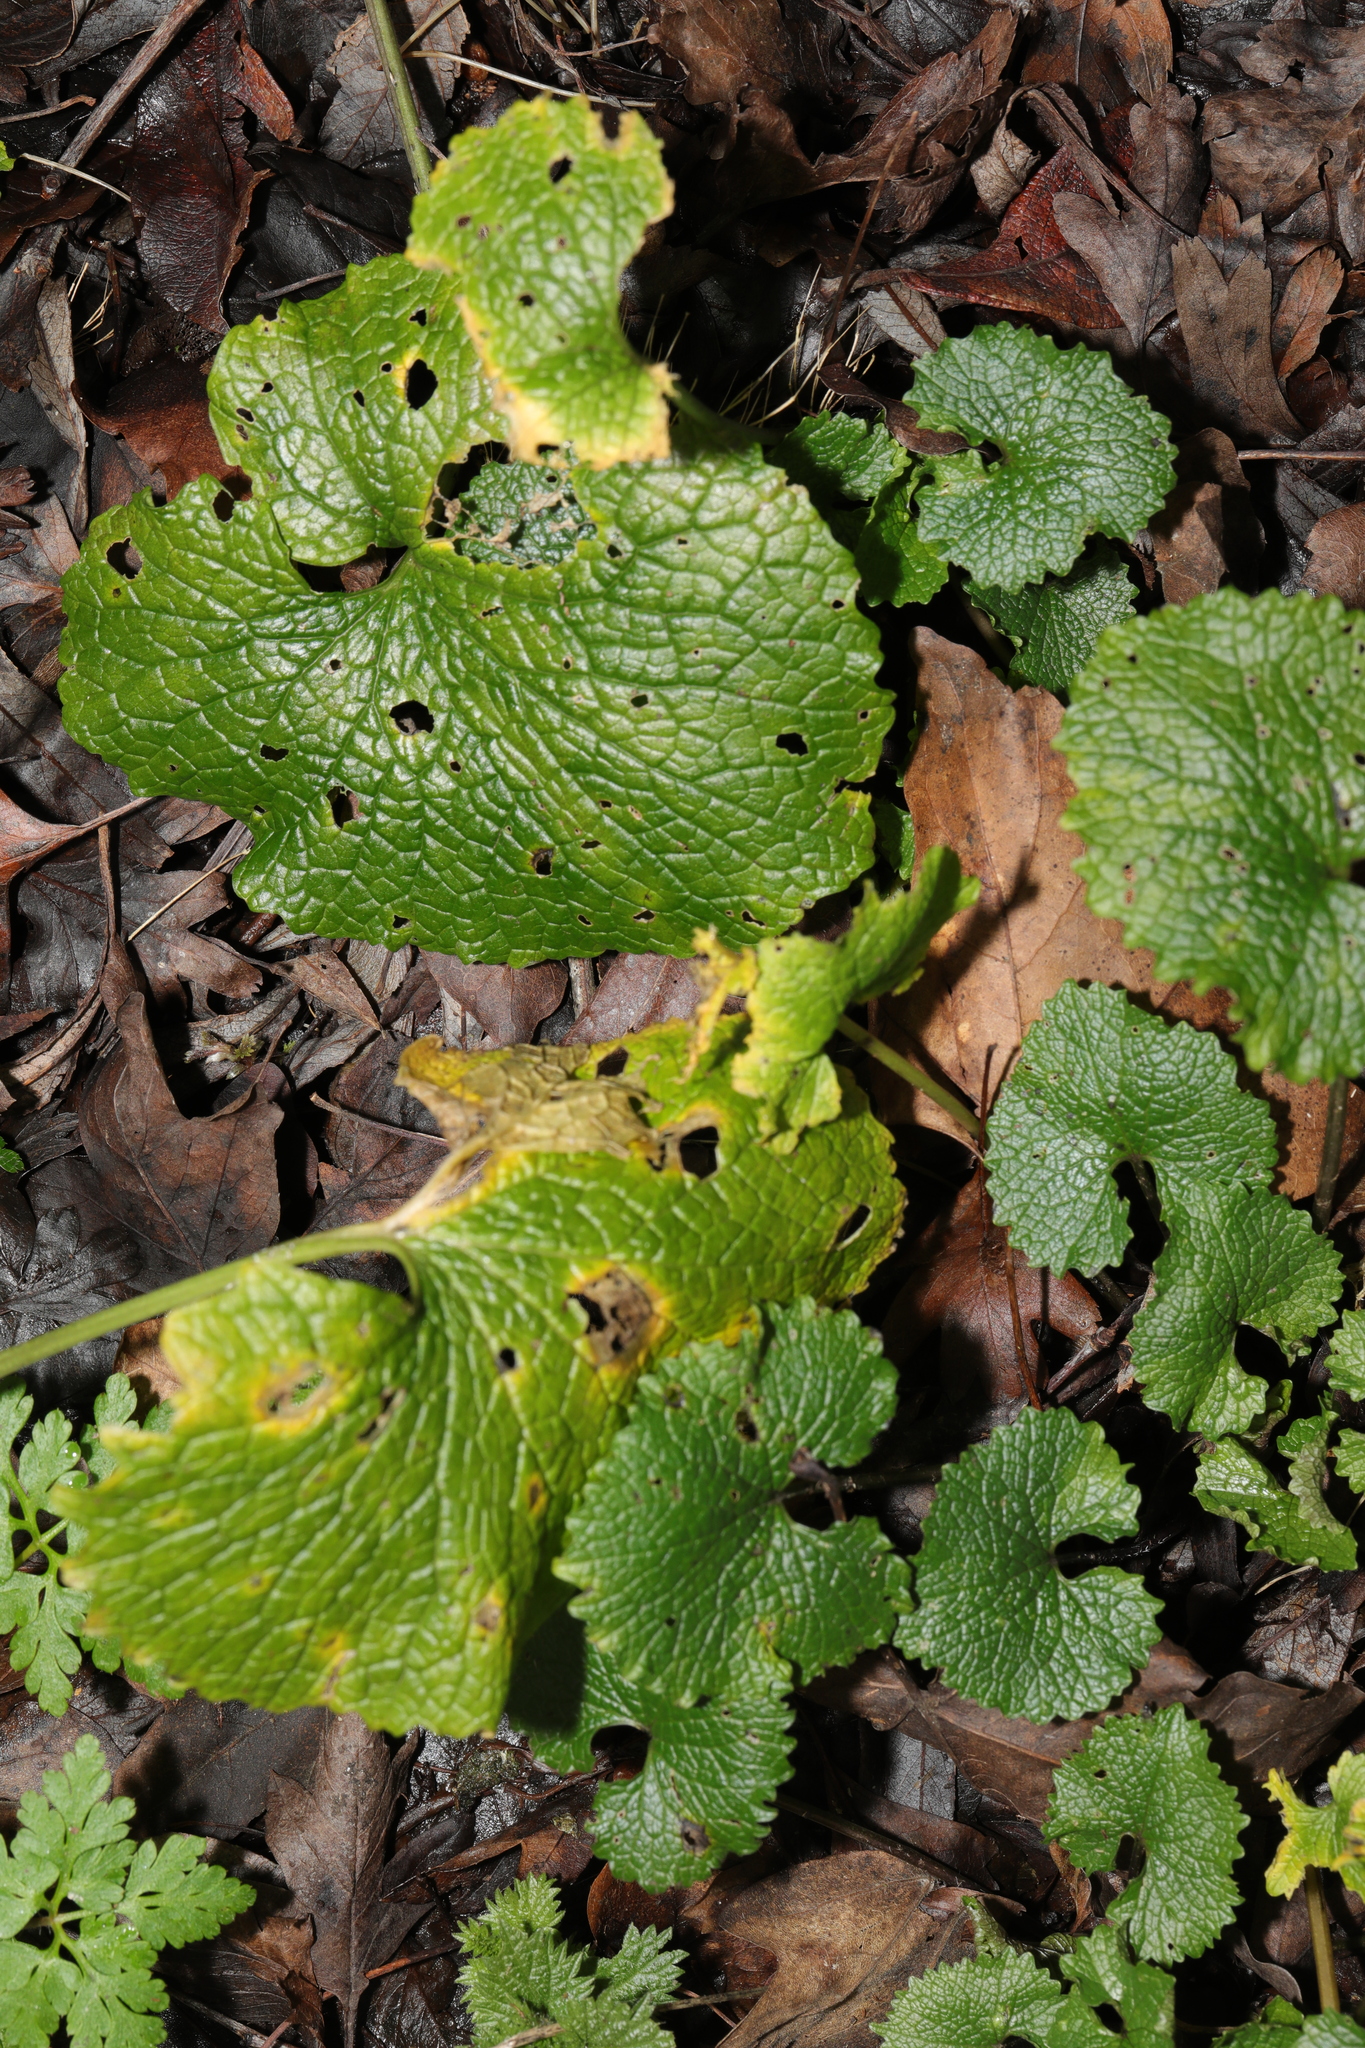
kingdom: Plantae
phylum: Tracheophyta
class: Magnoliopsida
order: Brassicales
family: Brassicaceae
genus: Alliaria
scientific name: Alliaria petiolata
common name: Garlic mustard
